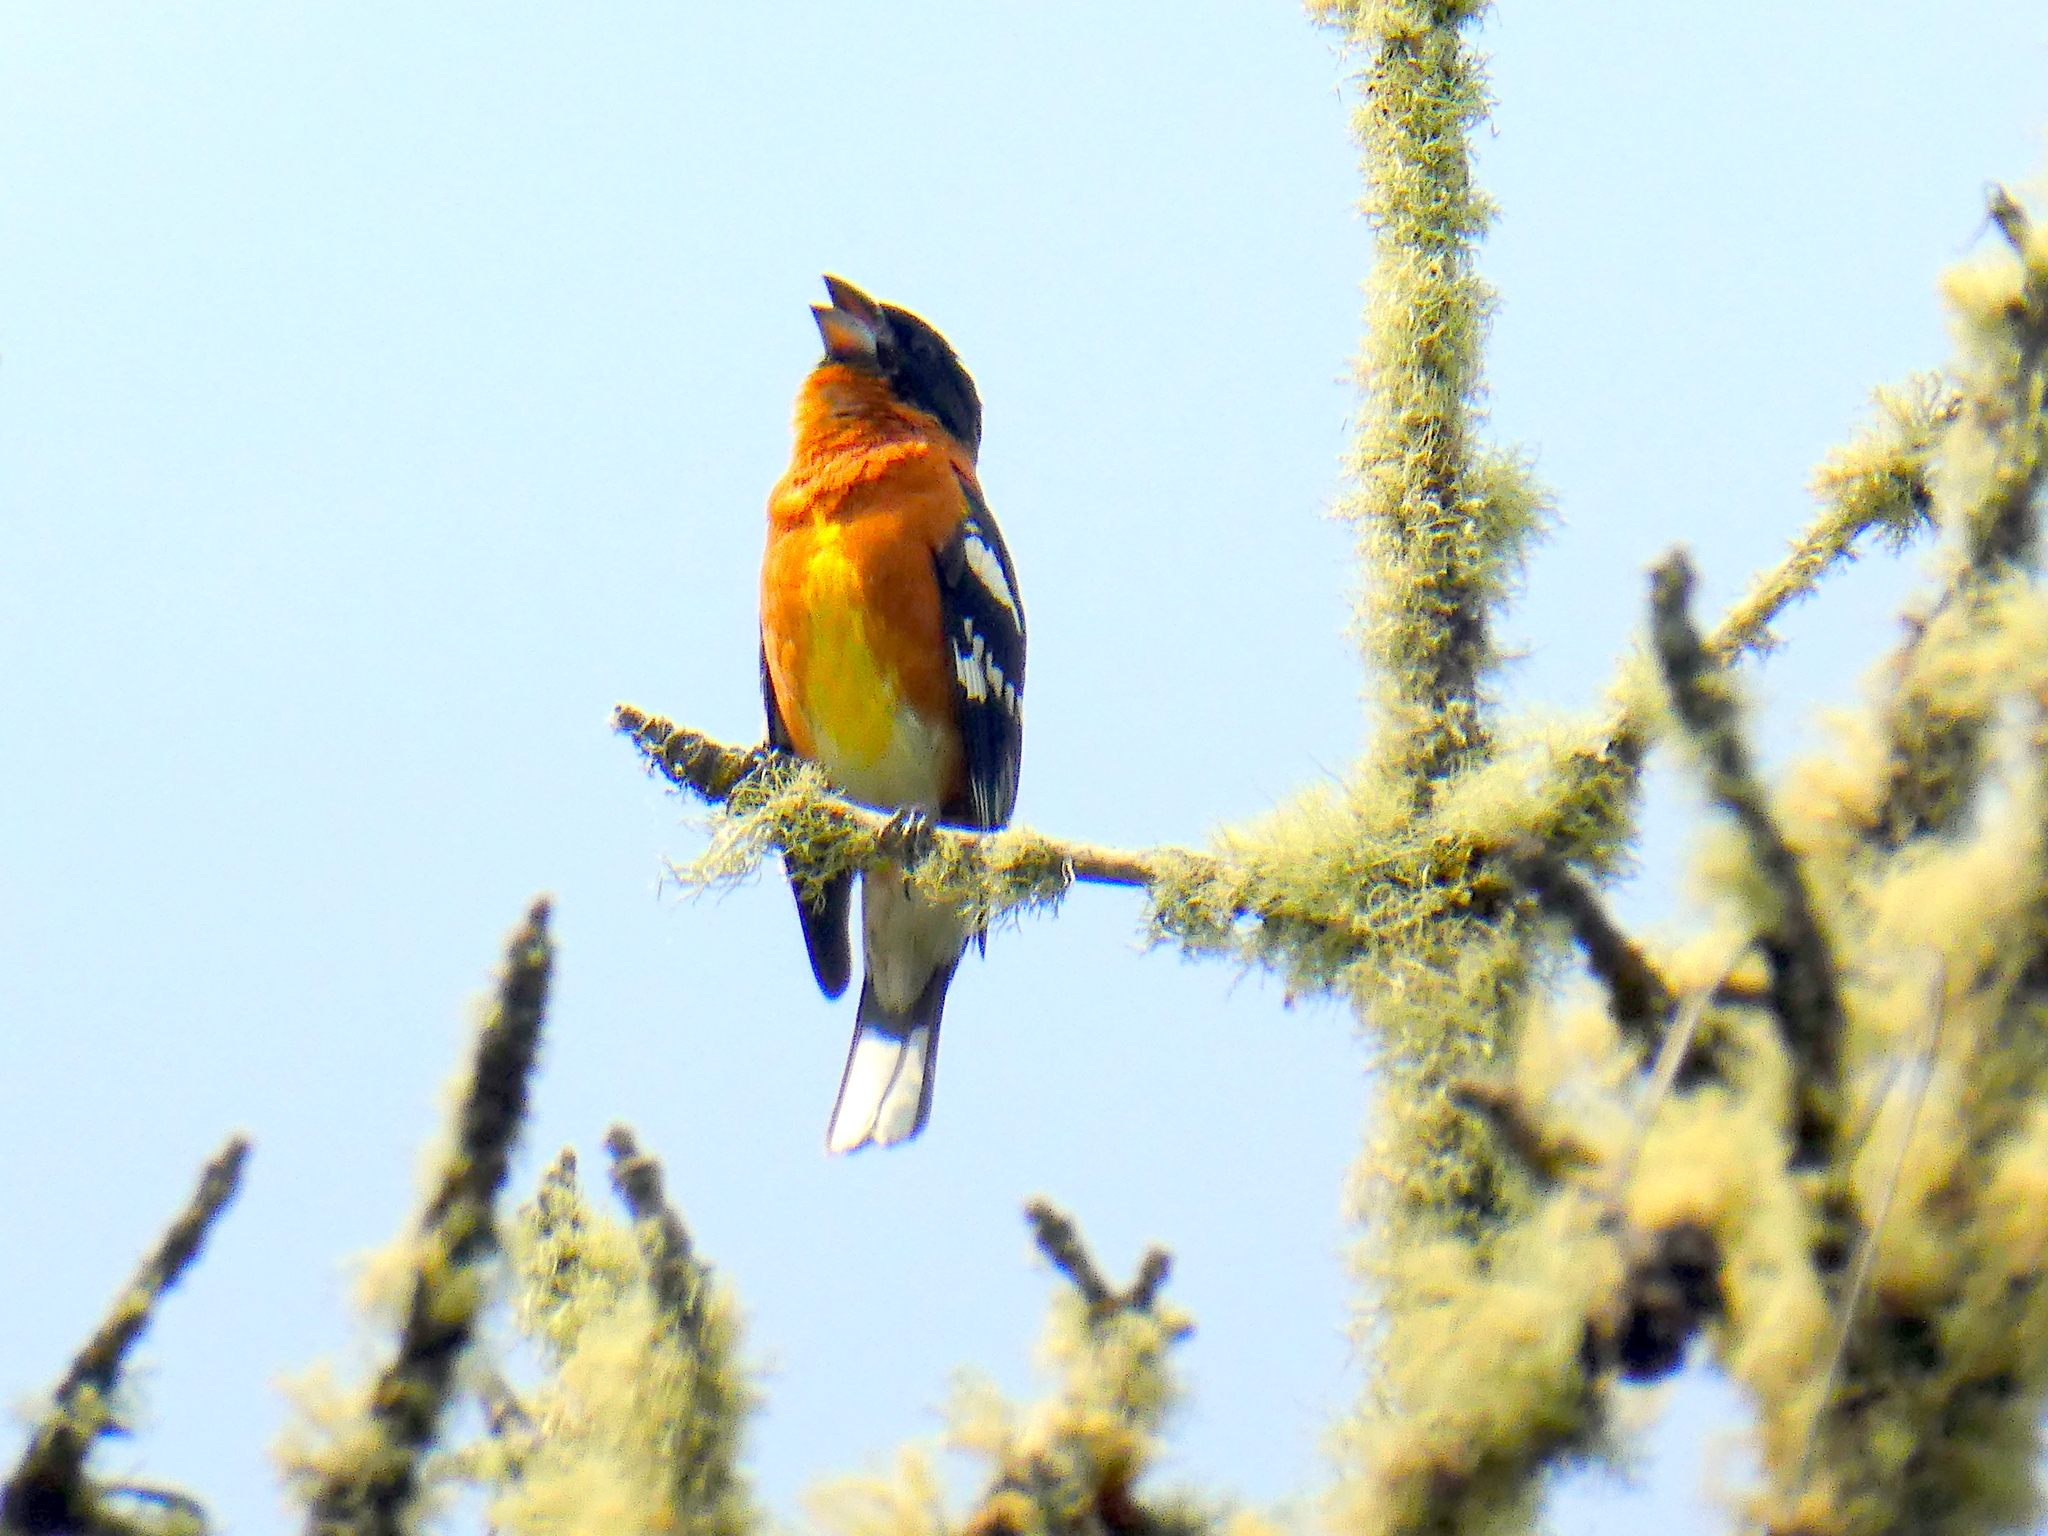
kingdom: Animalia
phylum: Chordata
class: Aves
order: Passeriformes
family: Cardinalidae
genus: Pheucticus
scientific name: Pheucticus melanocephalus
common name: Black-headed grosbeak
